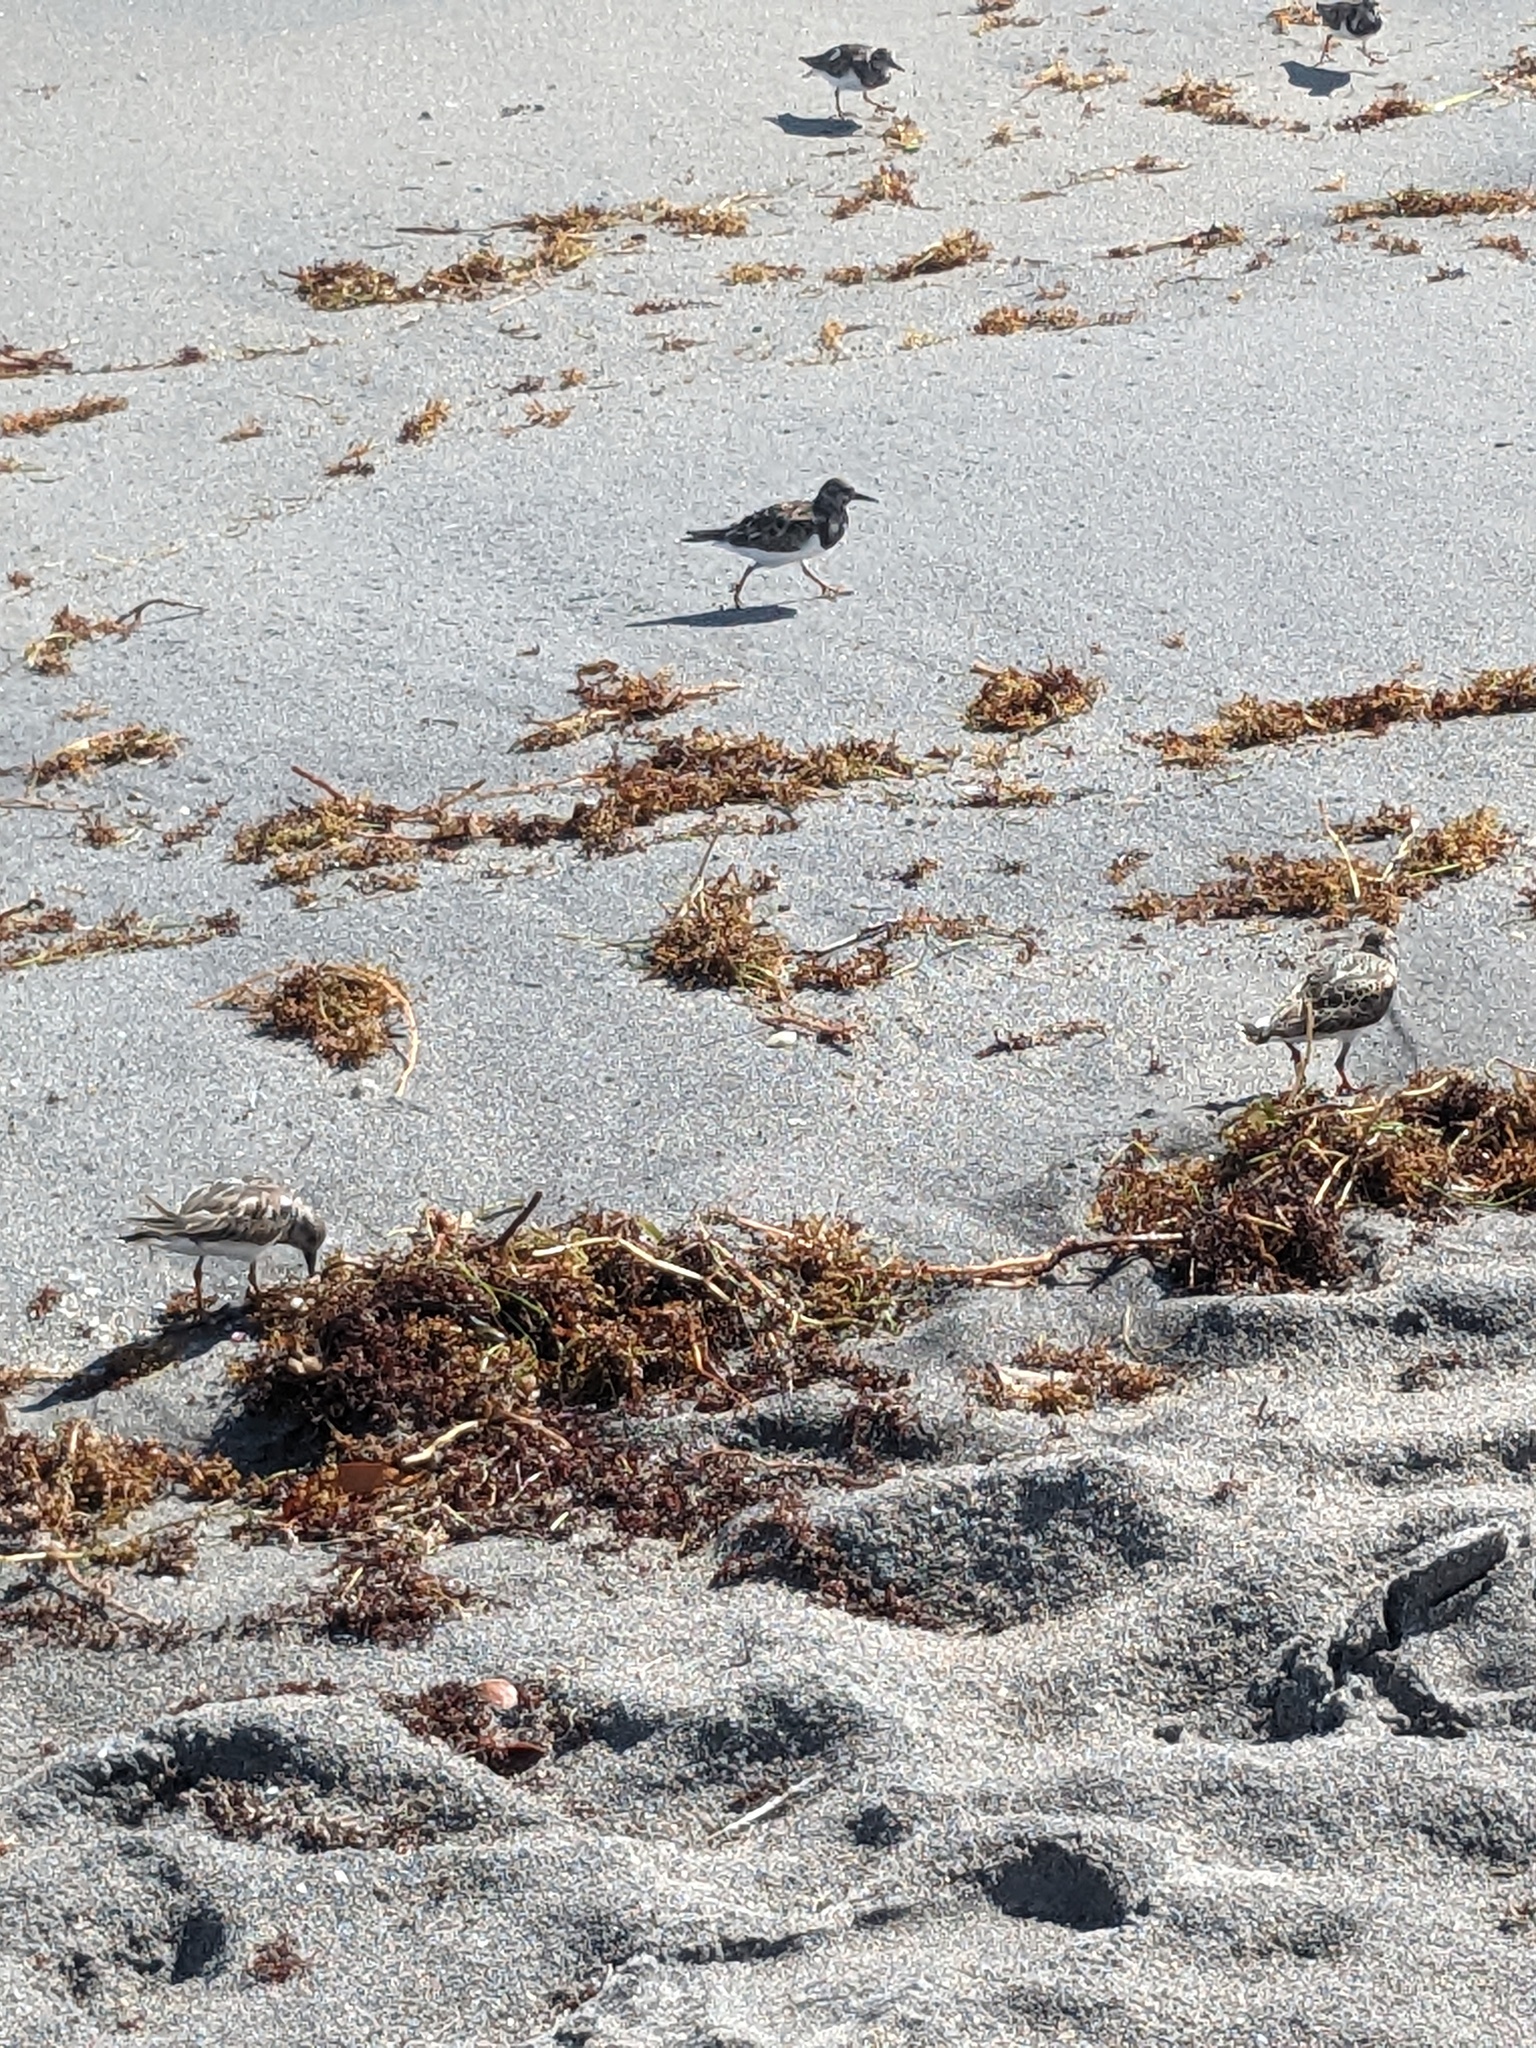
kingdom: Animalia
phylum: Chordata
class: Aves
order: Charadriiformes
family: Scolopacidae
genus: Arenaria
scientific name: Arenaria interpres
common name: Ruddy turnstone
